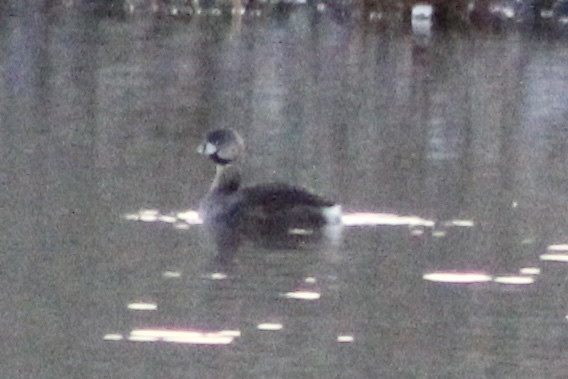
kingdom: Animalia
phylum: Chordata
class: Aves
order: Podicipediformes
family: Podicipedidae
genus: Podilymbus
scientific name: Podilymbus podiceps
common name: Pied-billed grebe
